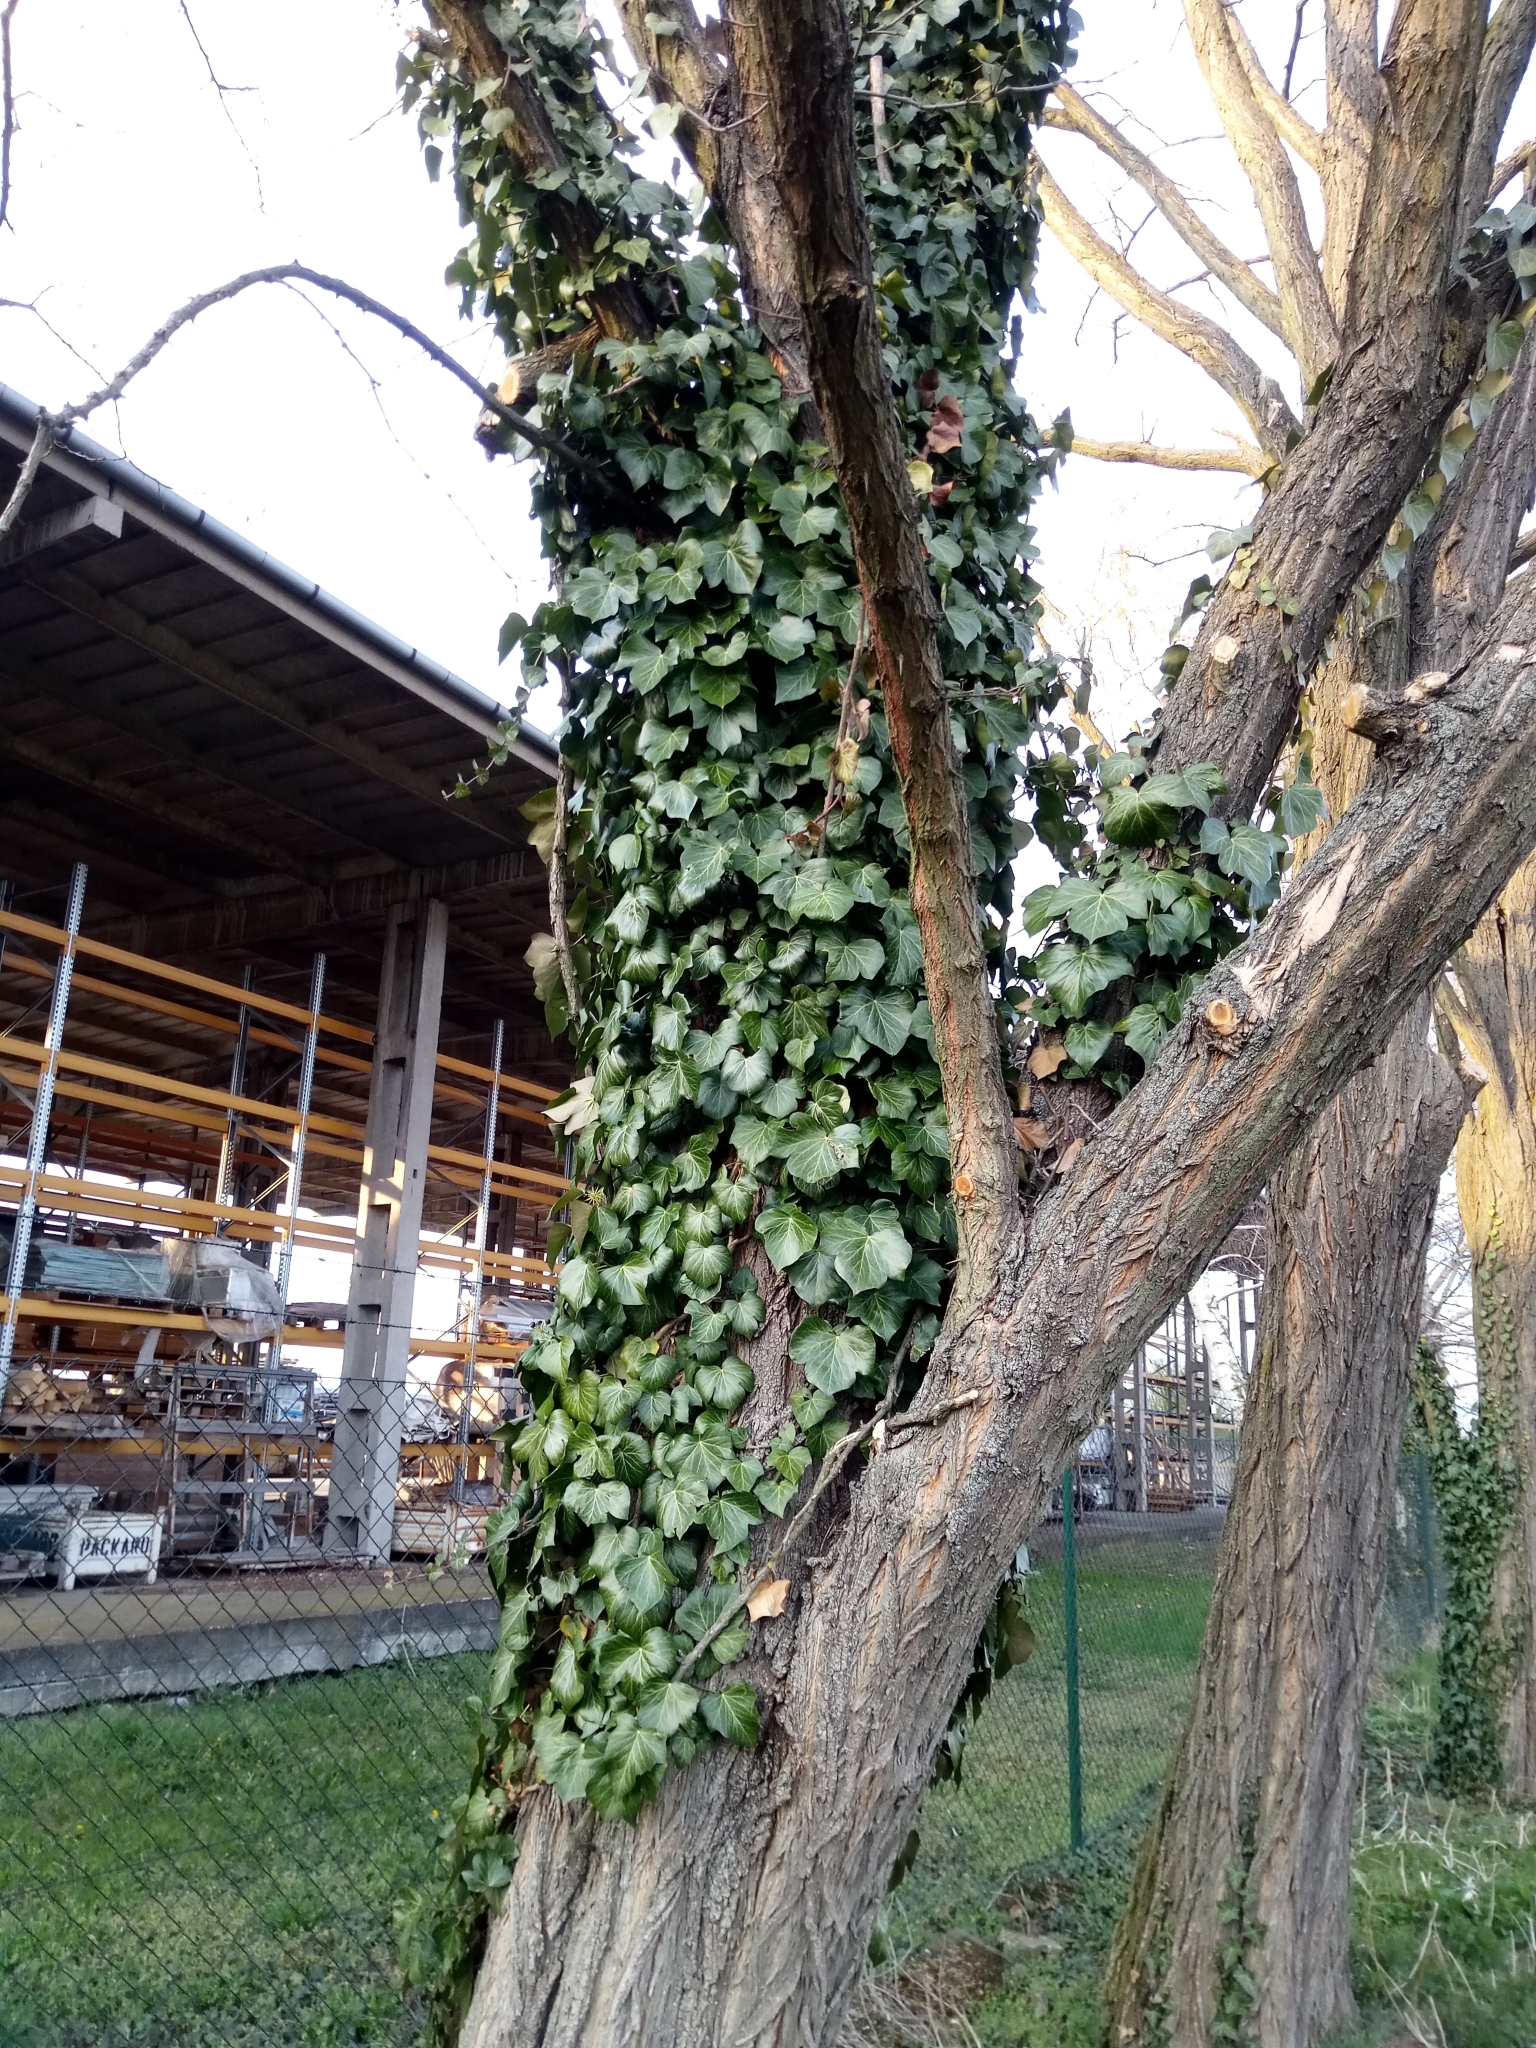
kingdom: Plantae
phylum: Tracheophyta
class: Magnoliopsida
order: Apiales
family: Araliaceae
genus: Hedera
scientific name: Hedera helix
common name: Ivy
